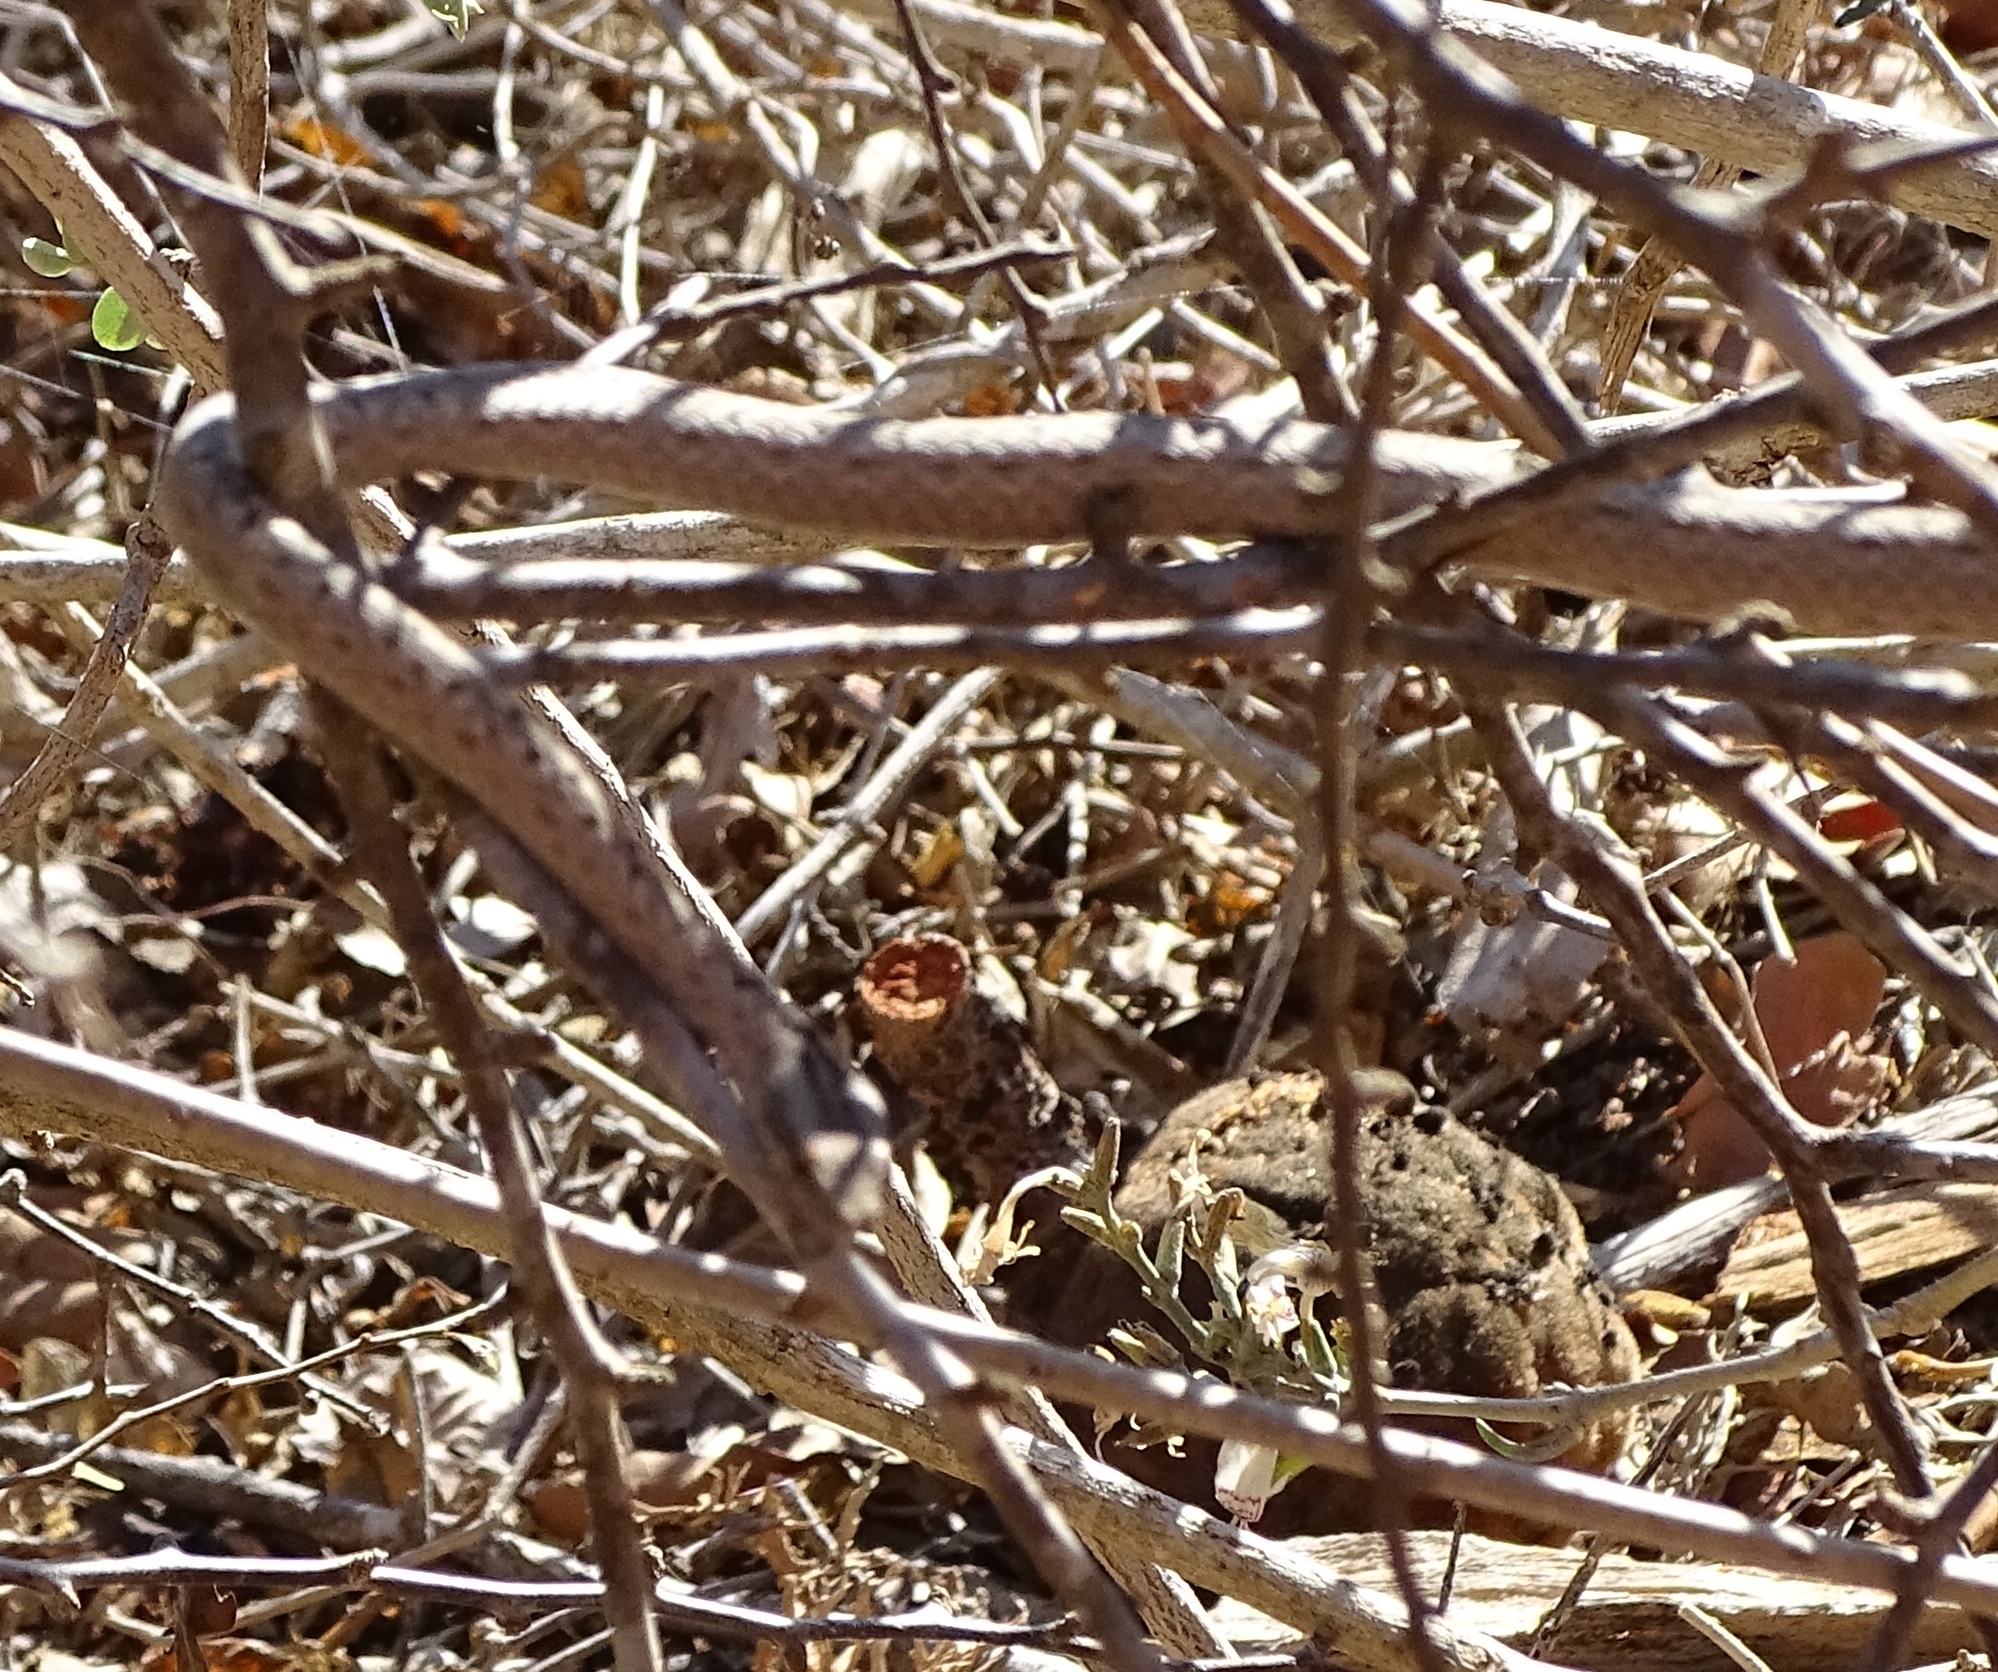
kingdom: Animalia
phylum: Chordata
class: Squamata
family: Psammophiidae
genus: Mimophis
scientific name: Mimophis mahfalensis
